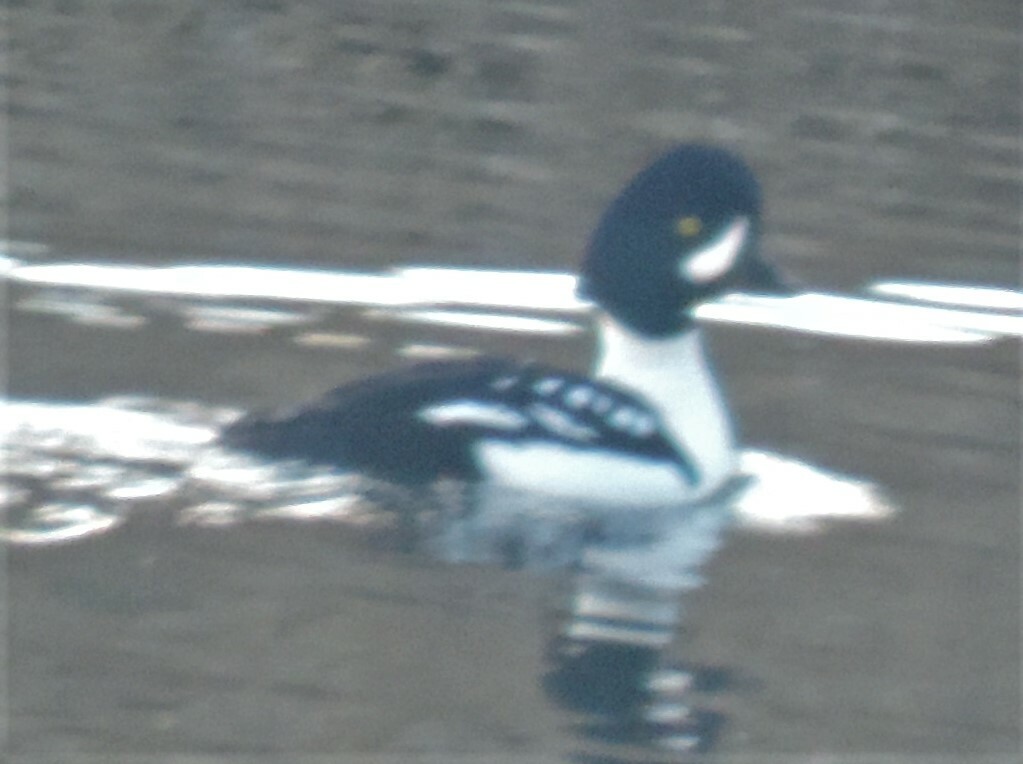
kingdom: Animalia
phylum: Chordata
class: Aves
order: Anseriformes
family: Anatidae
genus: Bucephala
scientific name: Bucephala islandica
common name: Barrow's goldeneye
